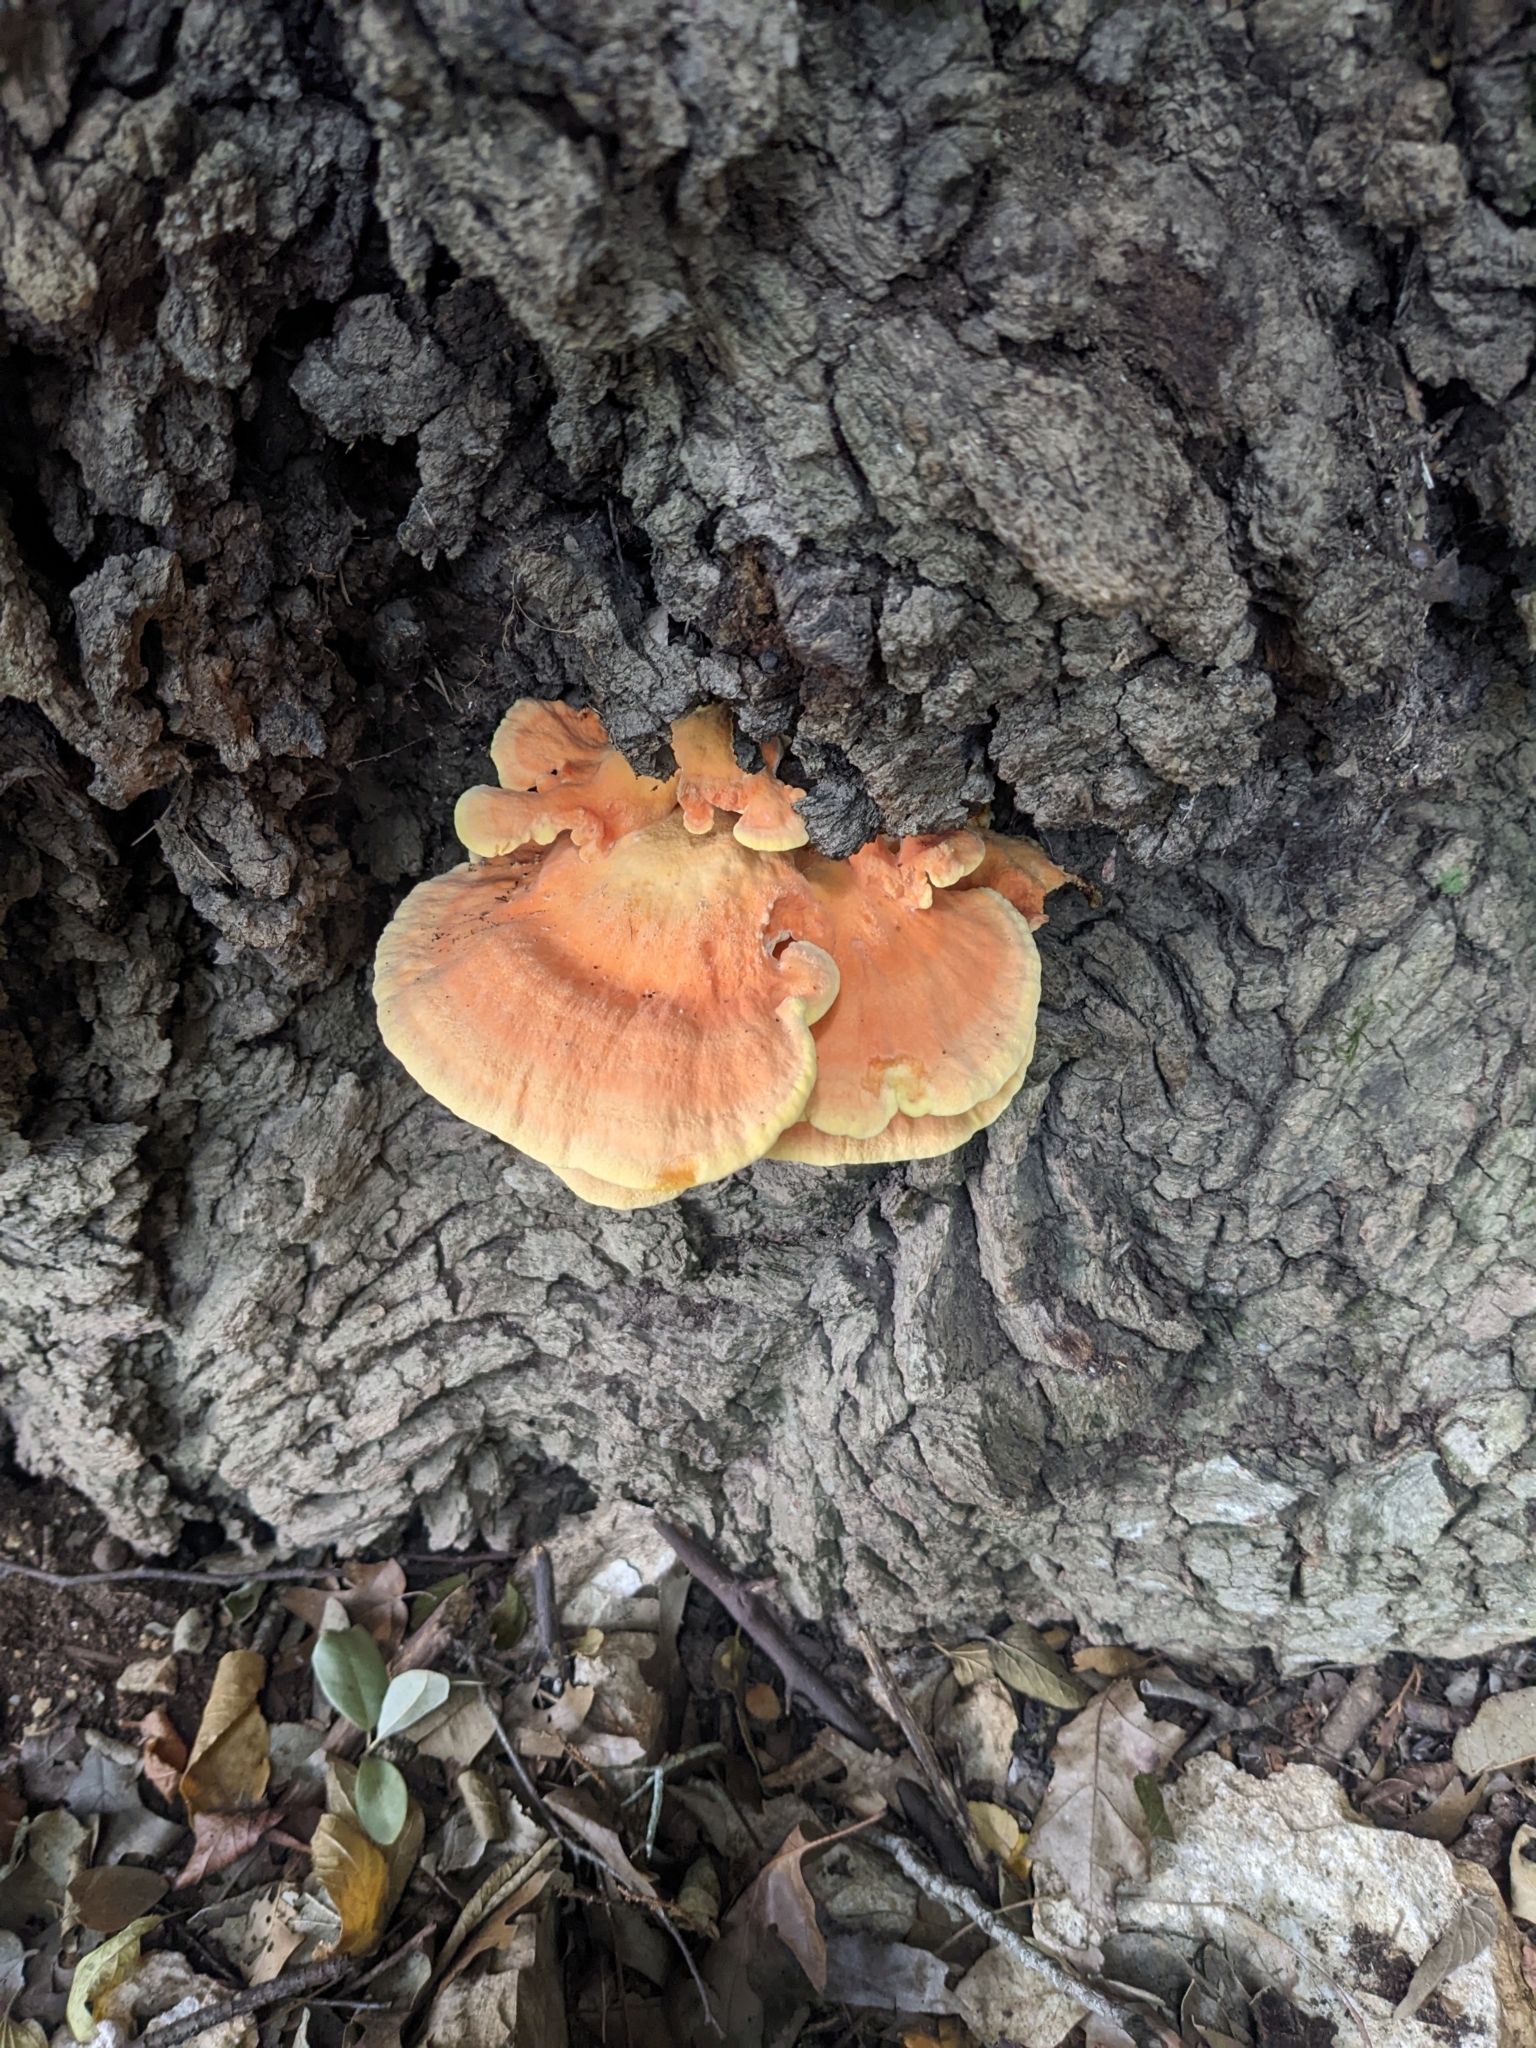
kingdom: Fungi
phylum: Basidiomycota
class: Agaricomycetes
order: Polyporales
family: Laetiporaceae
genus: Laetiporus
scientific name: Laetiporus sulphureus
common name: Chicken of the woods
